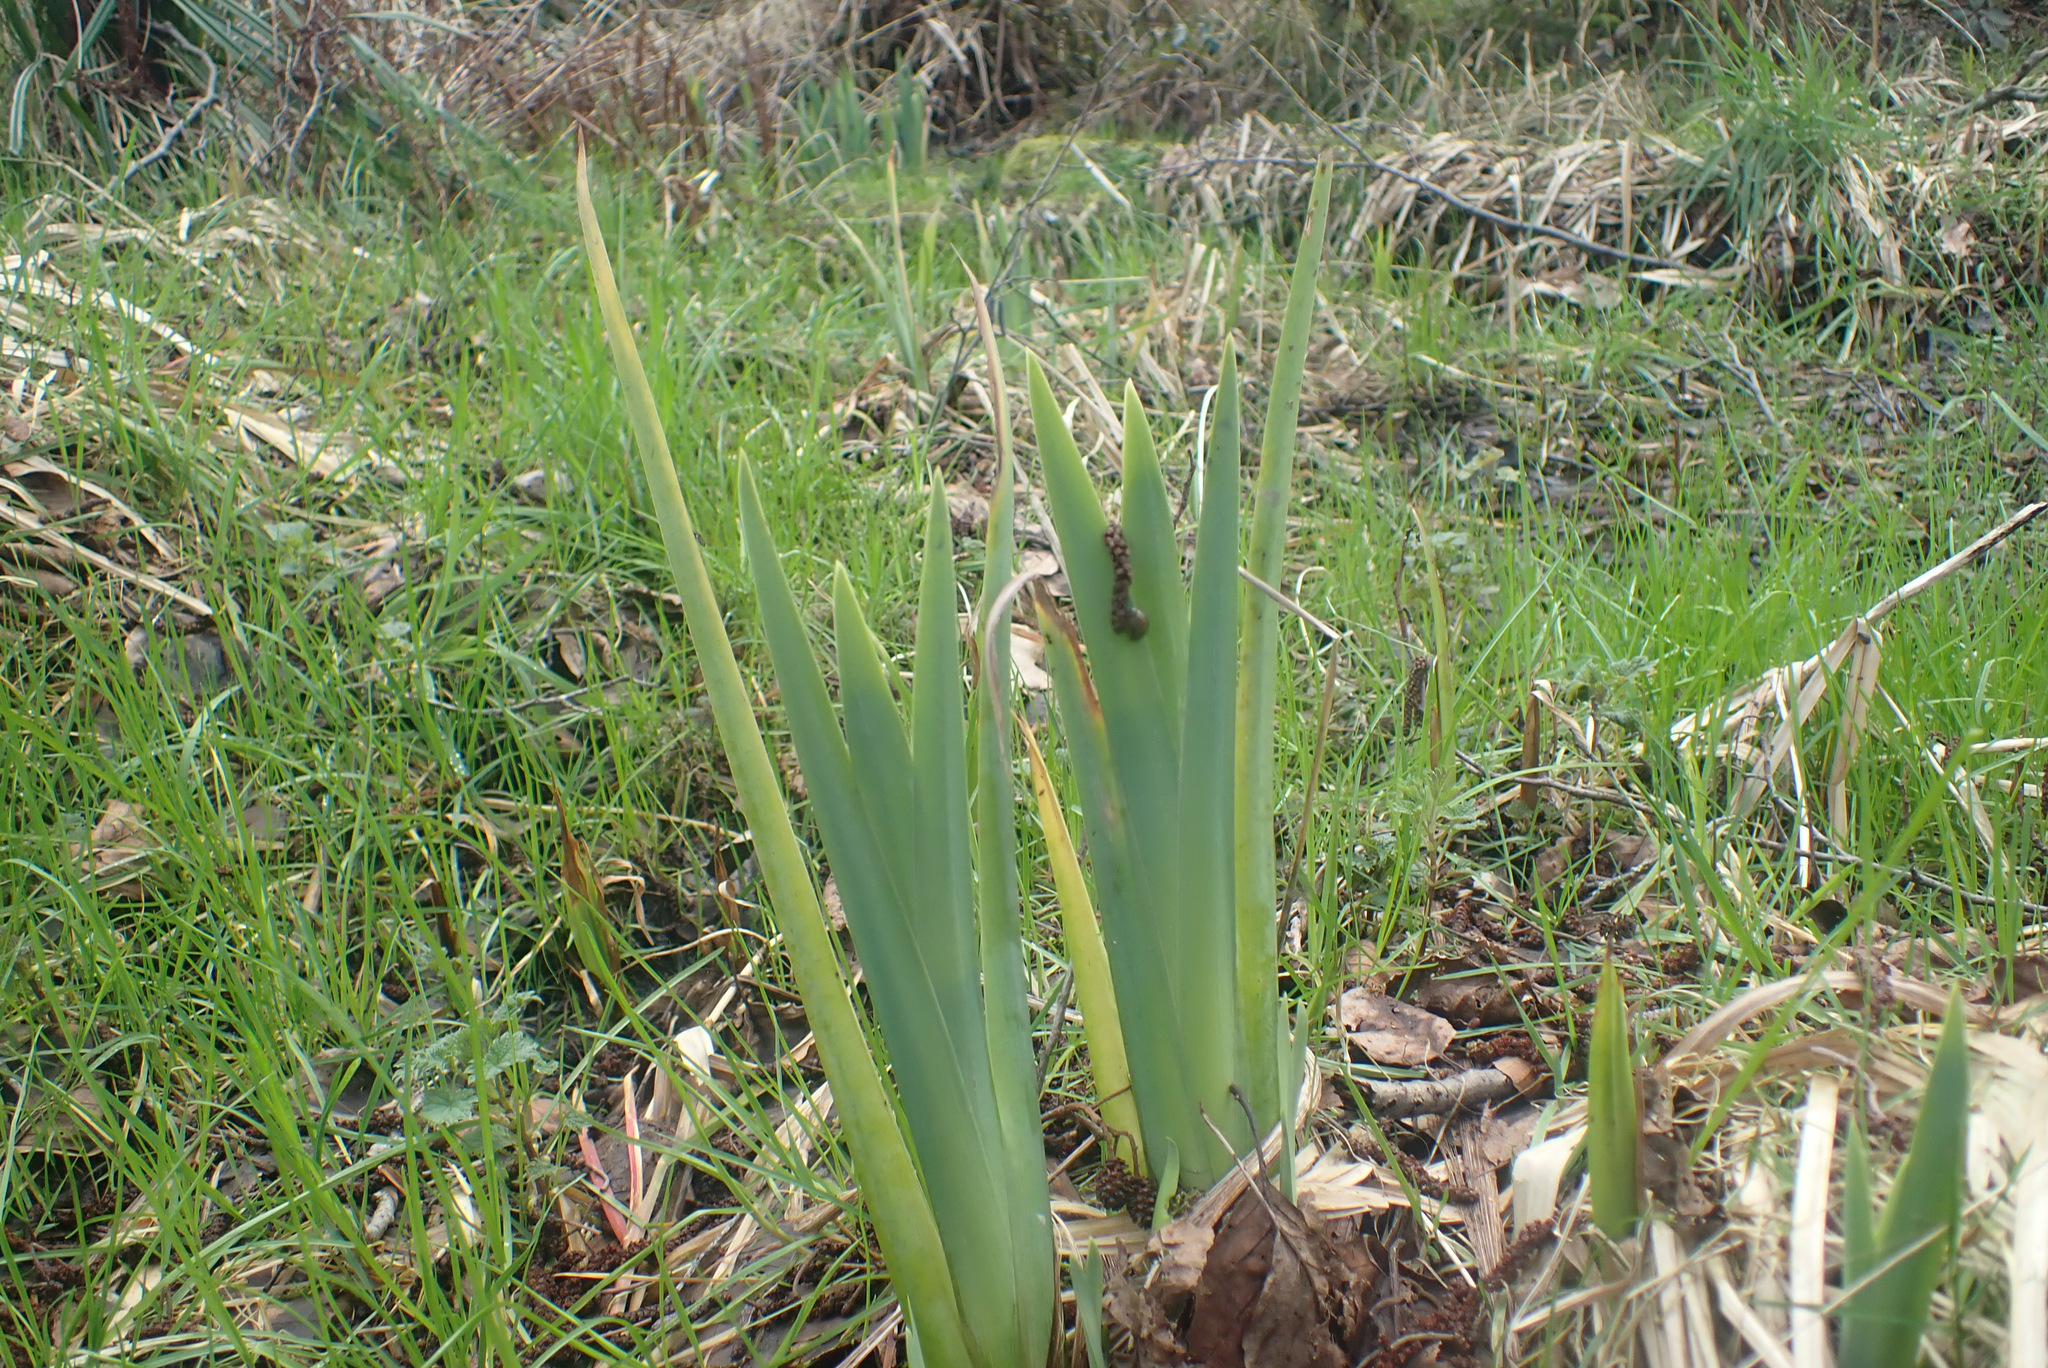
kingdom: Plantae
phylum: Tracheophyta
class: Liliopsida
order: Asparagales
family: Iridaceae
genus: Iris
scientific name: Iris pseudacorus
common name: Yellow flag
